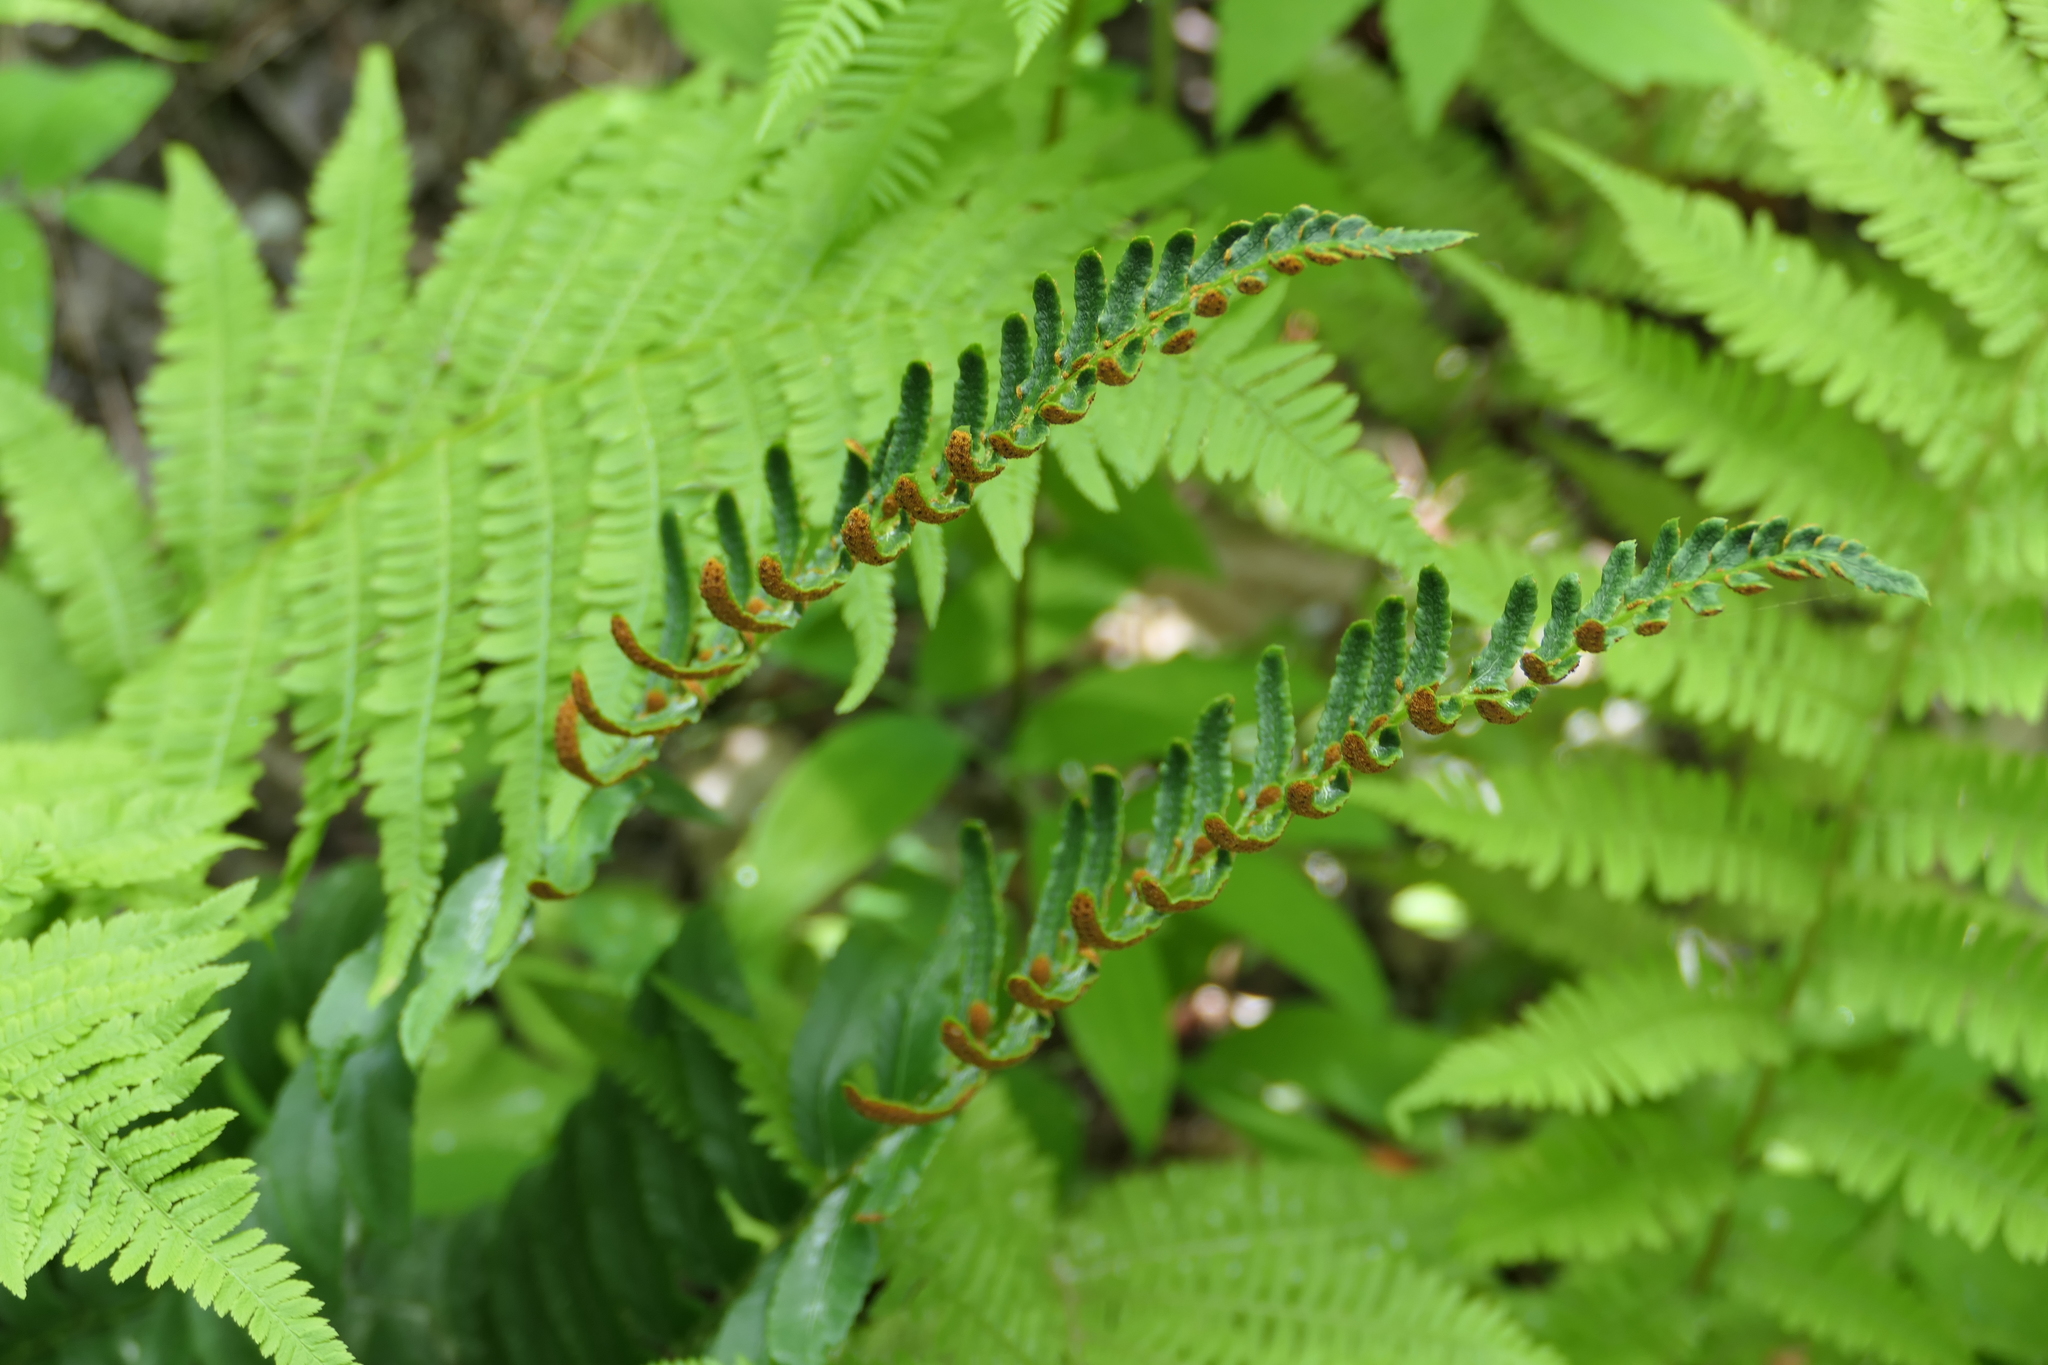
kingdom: Plantae
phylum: Tracheophyta
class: Polypodiopsida
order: Polypodiales
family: Dryopteridaceae
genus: Polystichum
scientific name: Polystichum acrostichoides
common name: Christmas fern
